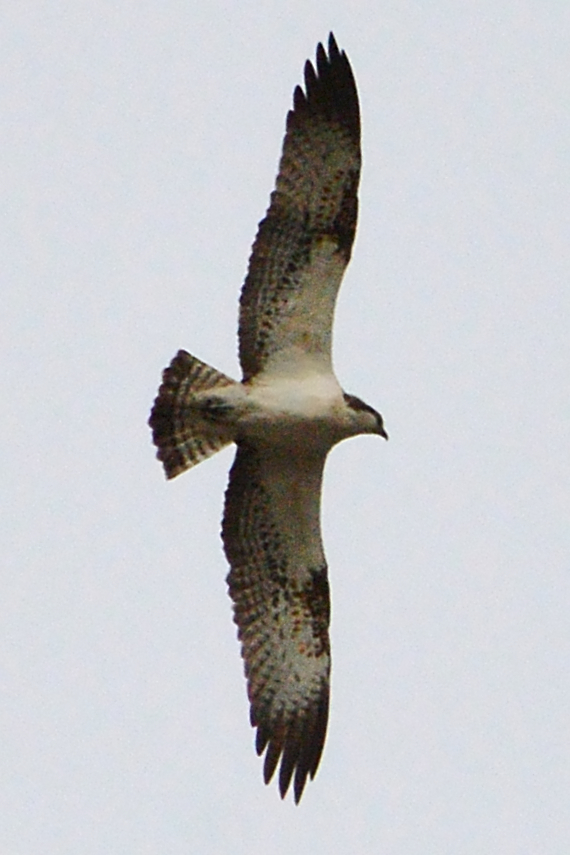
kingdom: Animalia
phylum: Chordata
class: Aves
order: Accipitriformes
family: Pandionidae
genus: Pandion
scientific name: Pandion haliaetus
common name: Osprey
